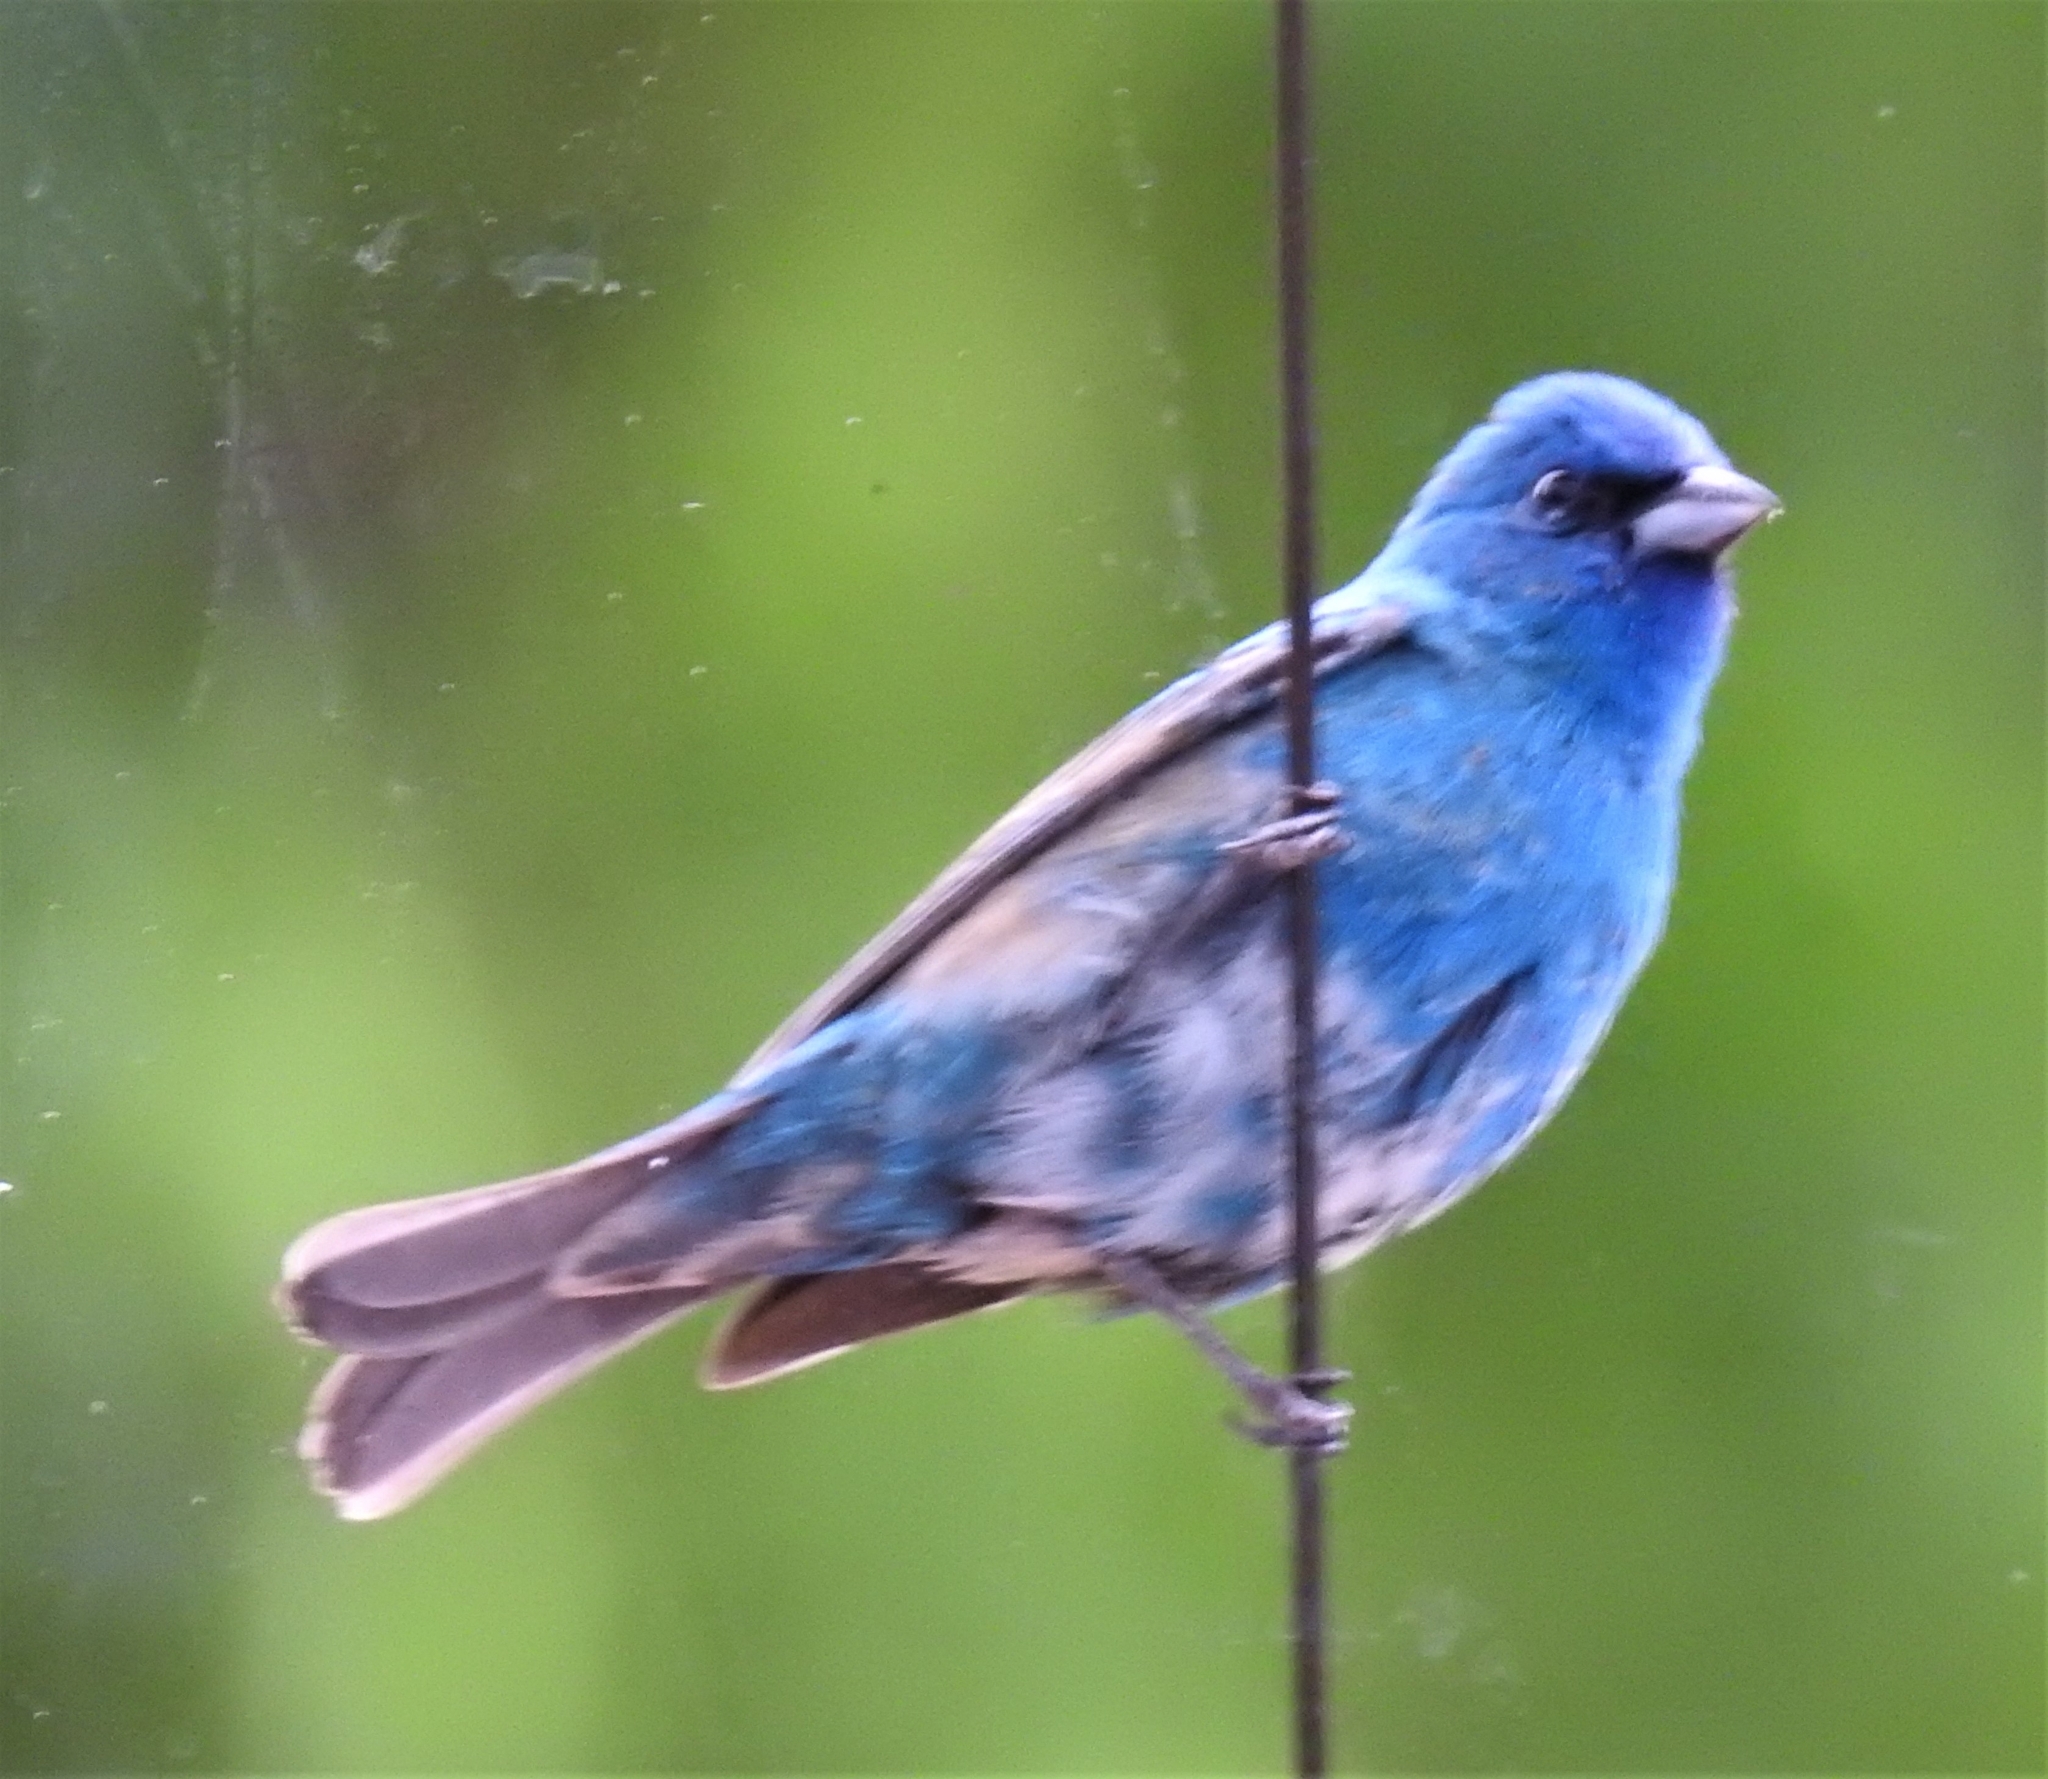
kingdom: Animalia
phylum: Chordata
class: Aves
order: Passeriformes
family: Cardinalidae
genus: Passerina
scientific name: Passerina cyanea
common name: Indigo bunting
